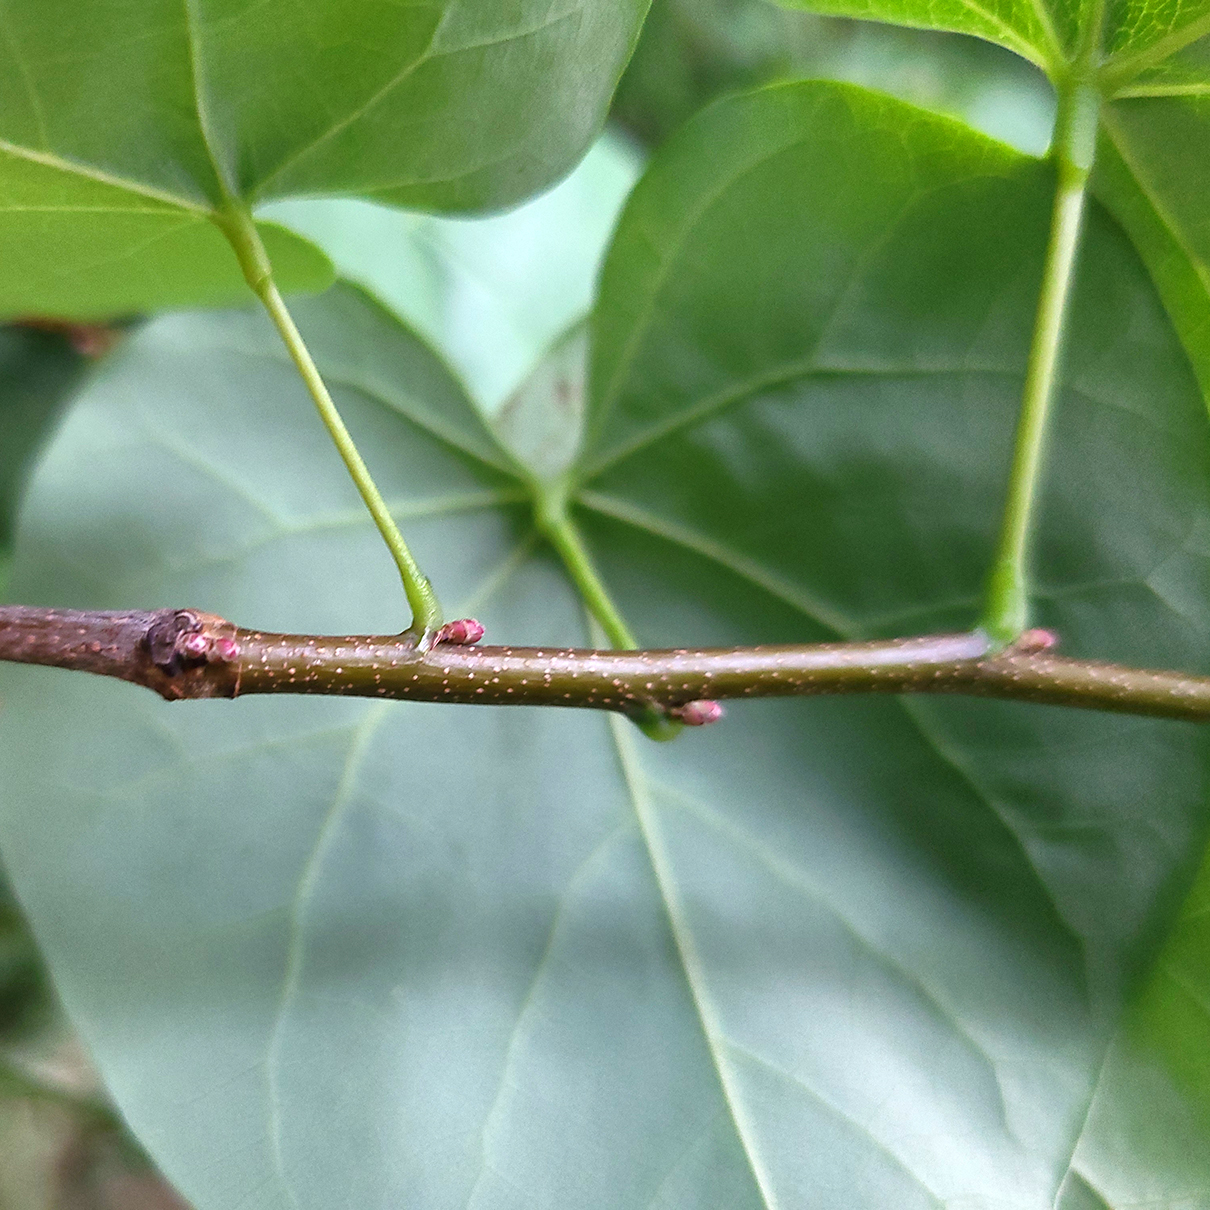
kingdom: Plantae
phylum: Tracheophyta
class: Magnoliopsida
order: Fabales
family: Fabaceae
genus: Cercis
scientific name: Cercis canadensis
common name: Eastern redbud
